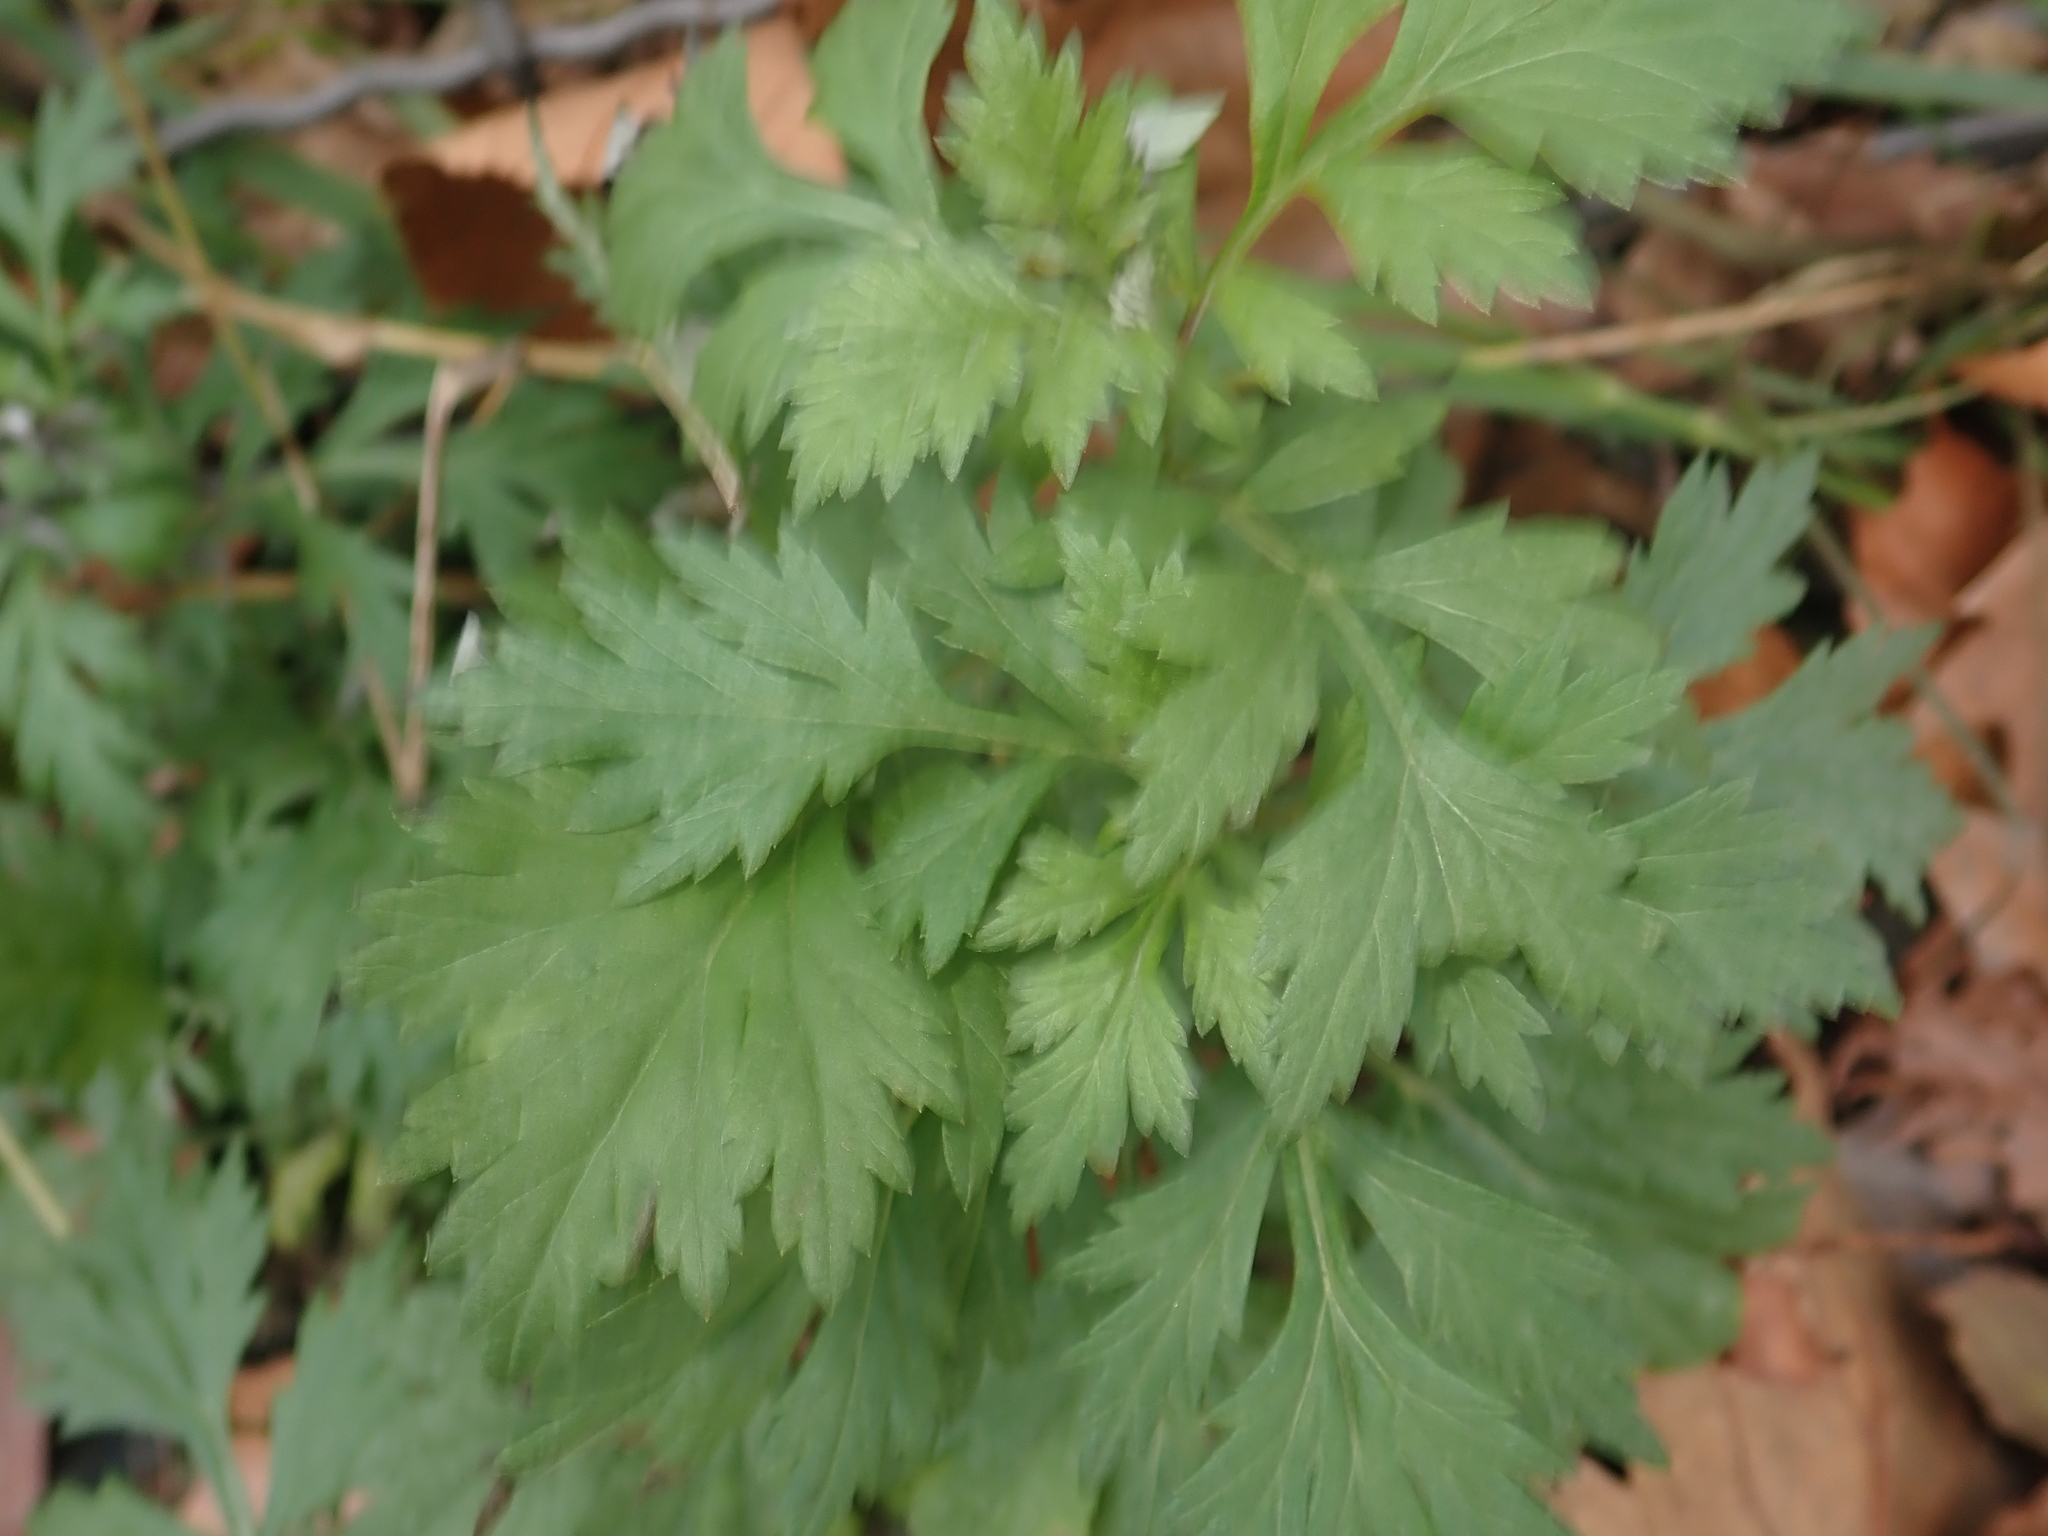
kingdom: Plantae
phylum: Tracheophyta
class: Magnoliopsida
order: Asterales
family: Asteraceae
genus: Artemisia
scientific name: Artemisia vulgaris
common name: Mugwort
